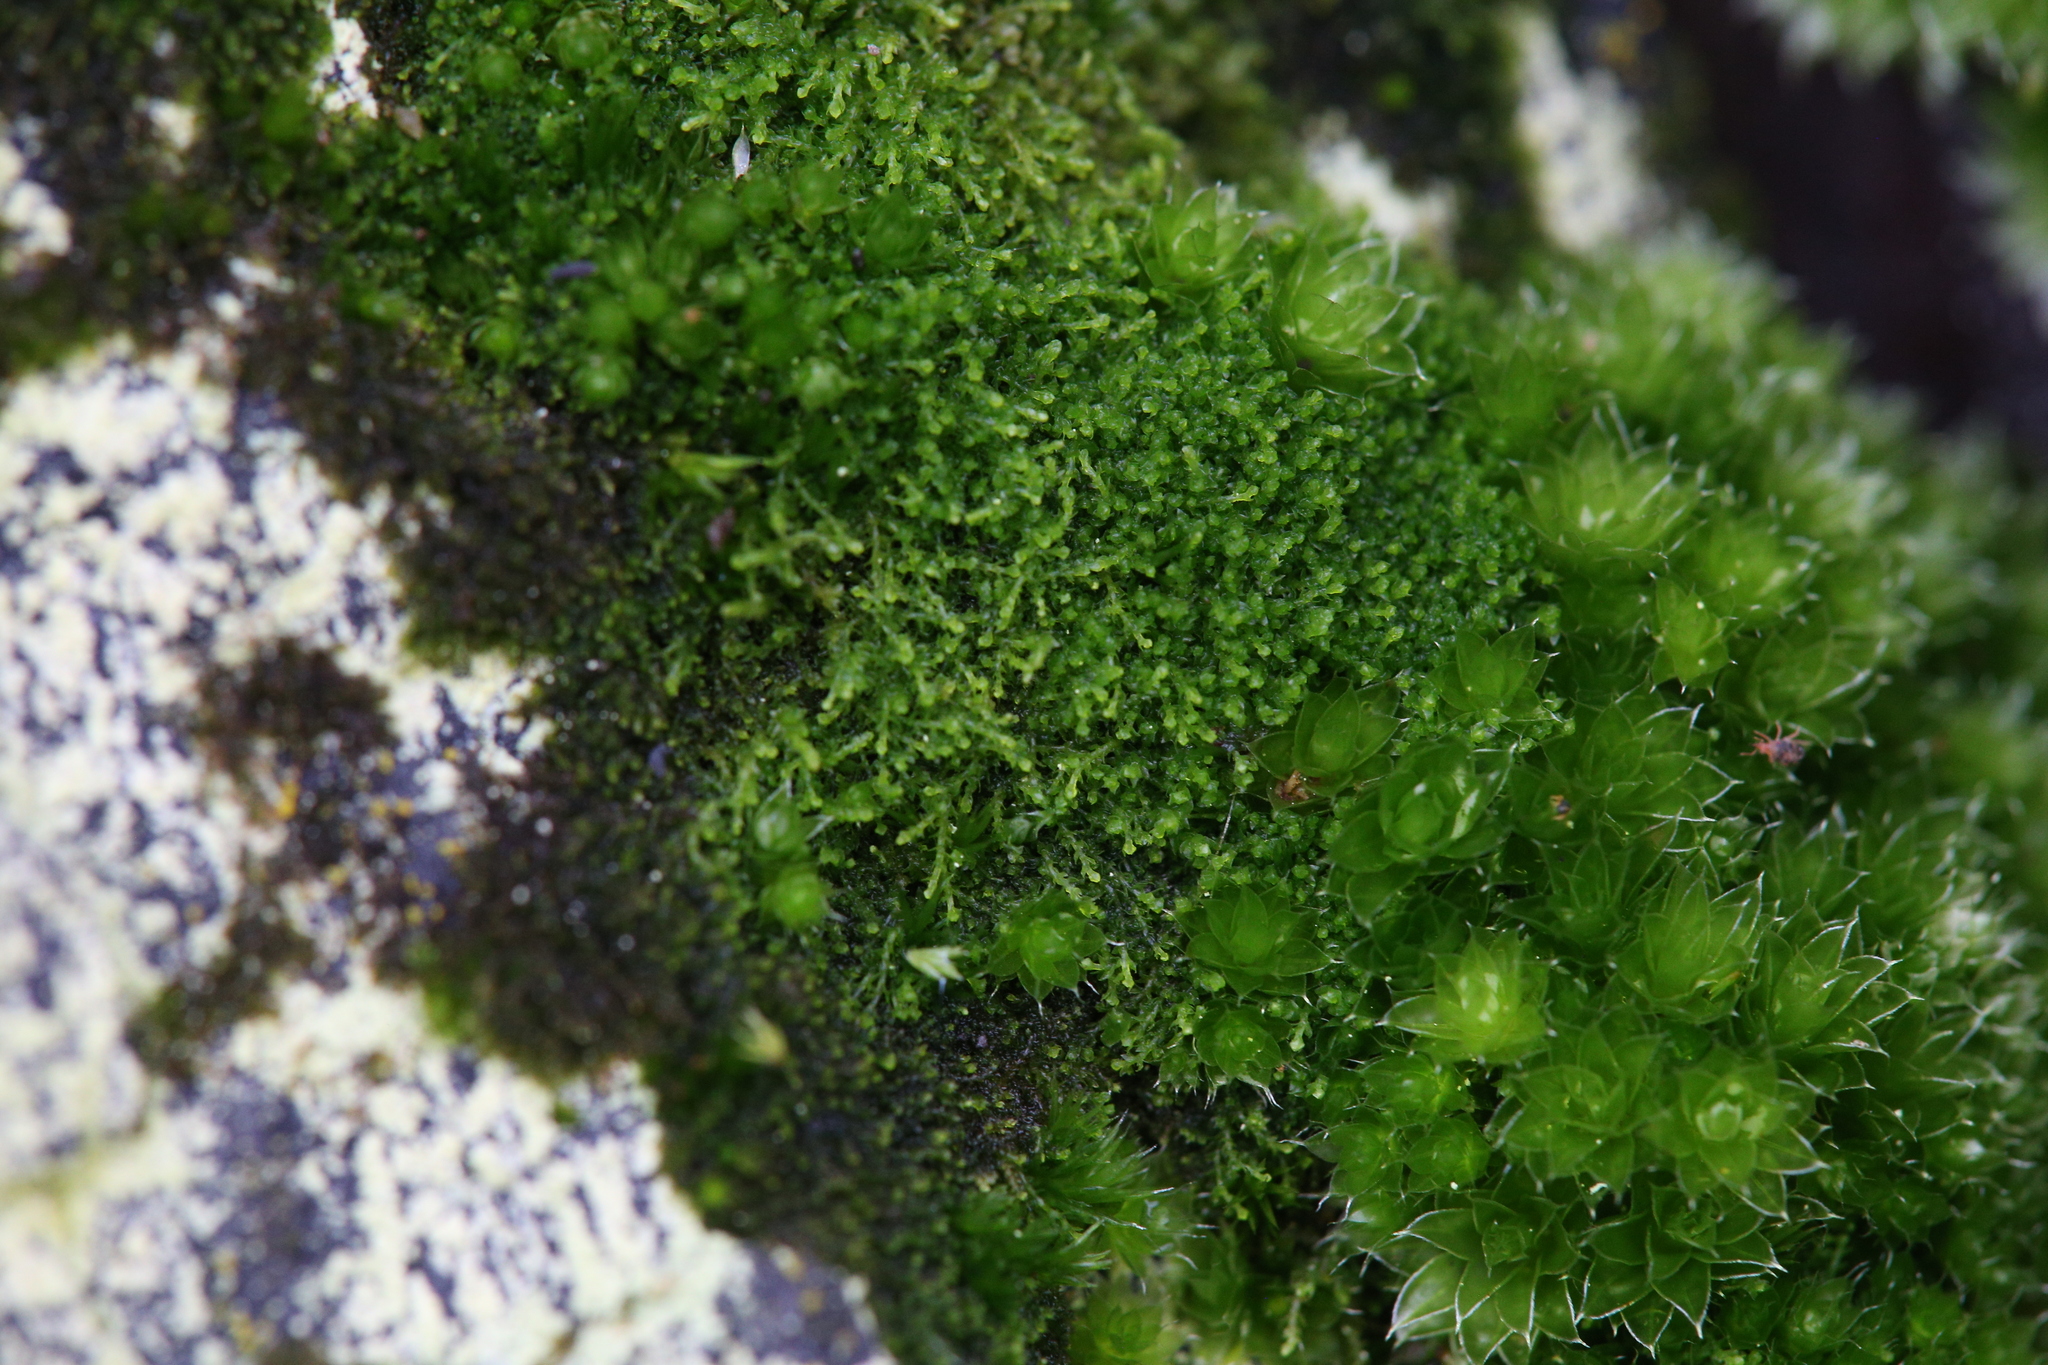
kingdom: Plantae
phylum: Marchantiophyta
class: Jungermanniopsida
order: Jungermanniales
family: Cephaloziellaceae
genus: Cephaloziella
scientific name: Cephaloziella exiliflora
